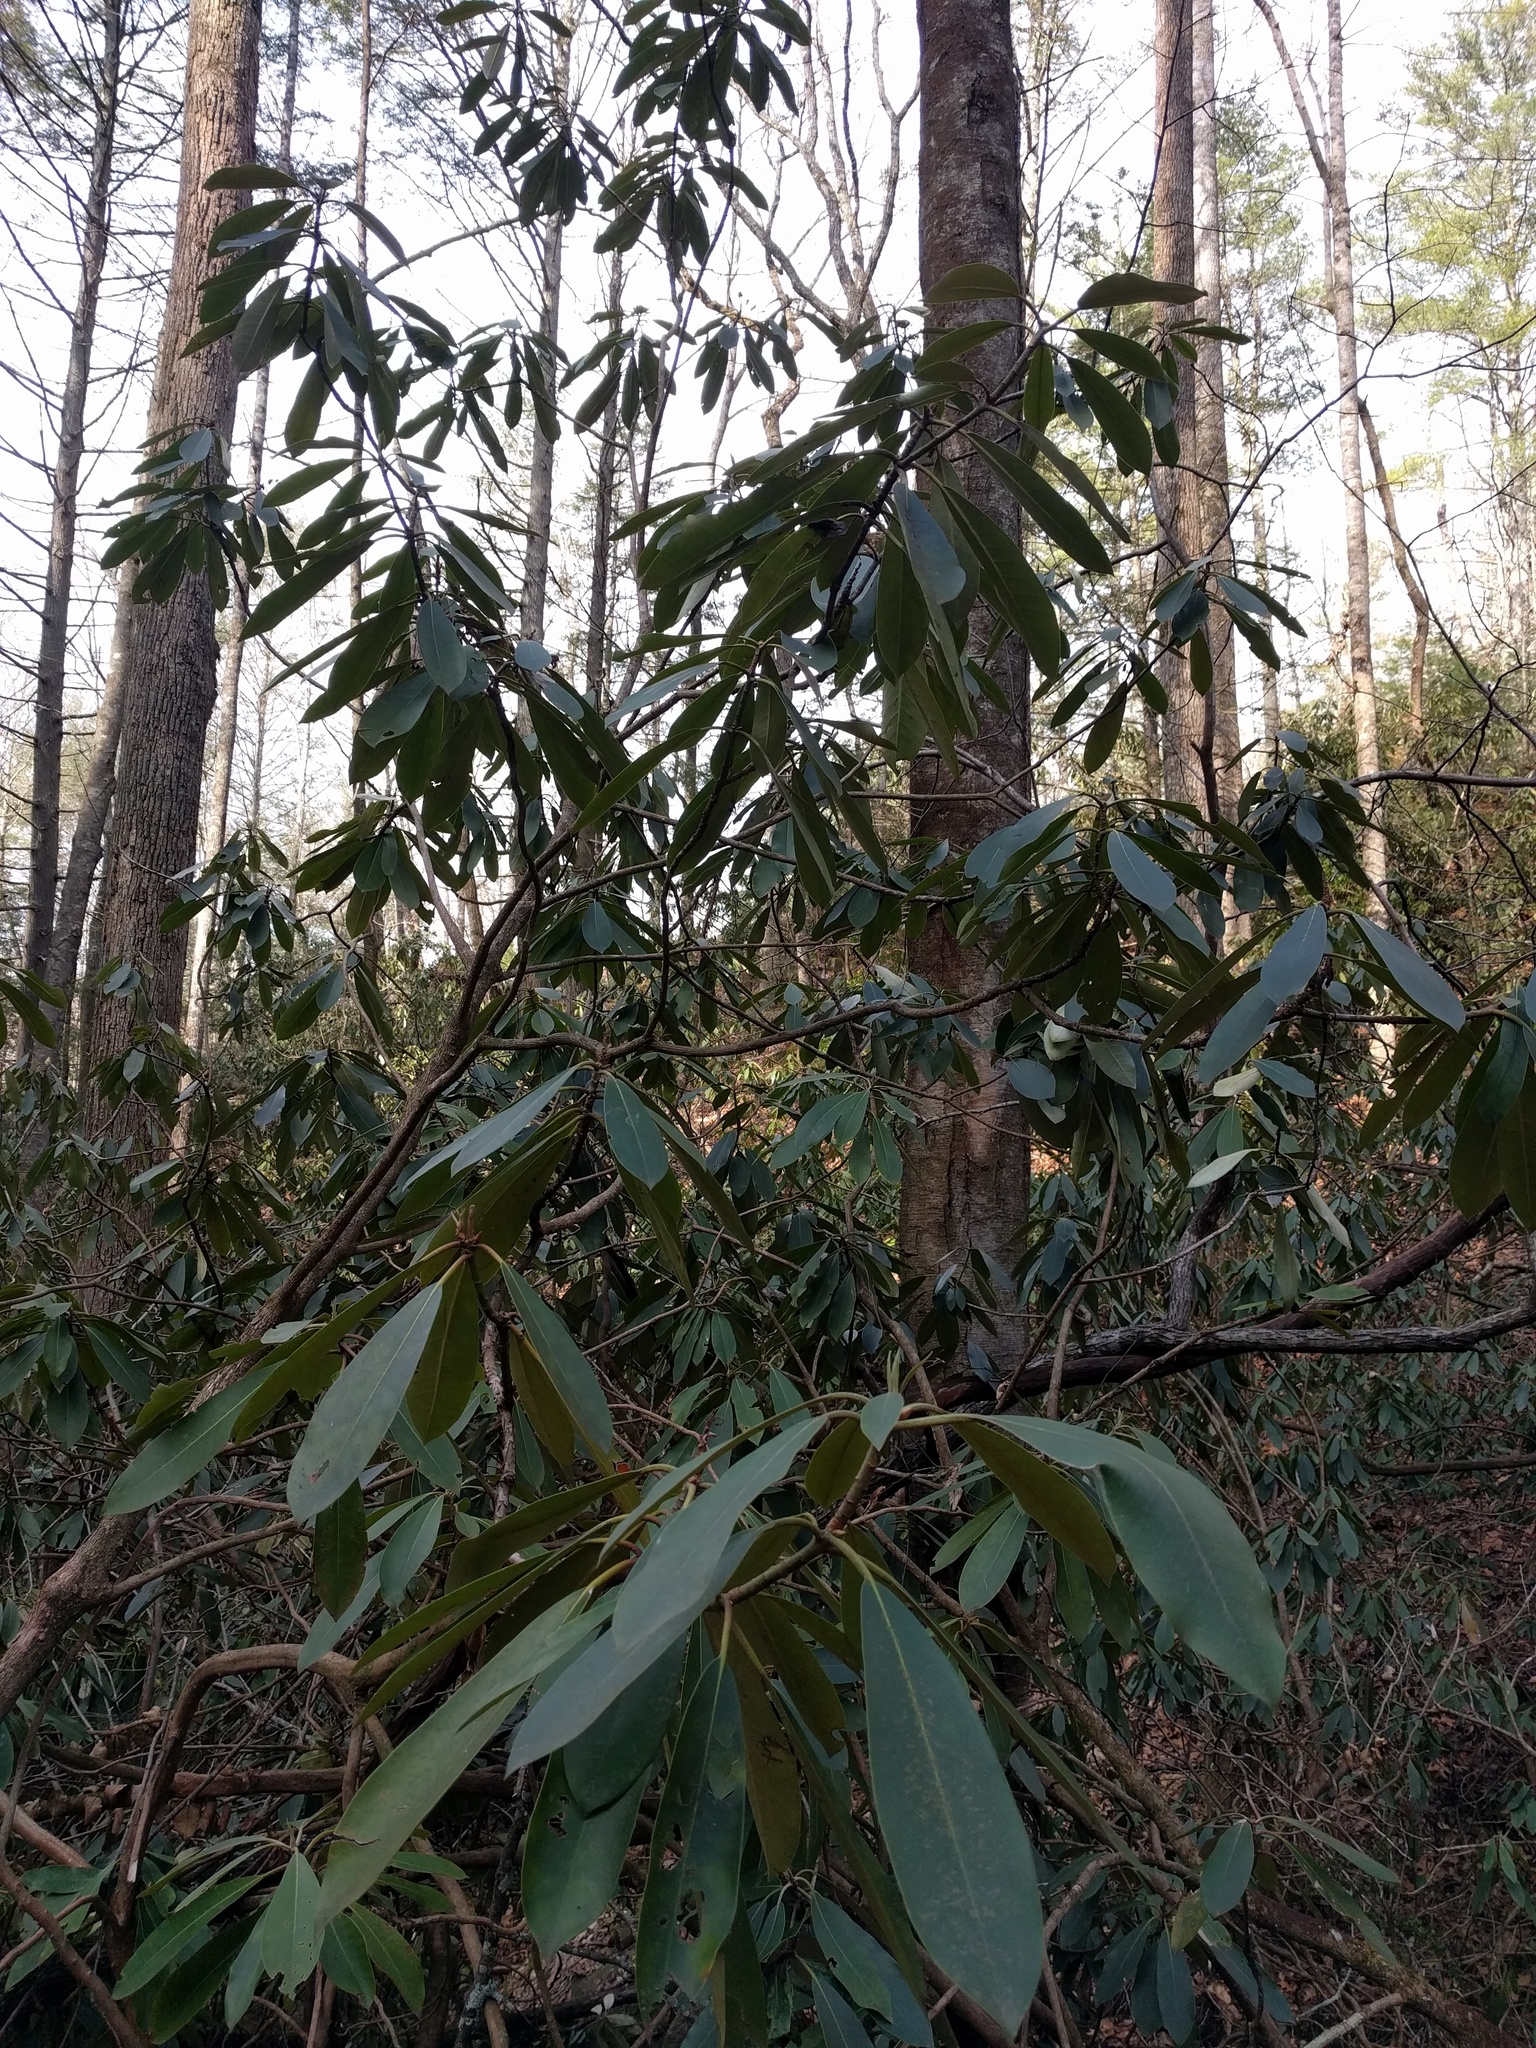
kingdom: Plantae
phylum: Tracheophyta
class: Magnoliopsida
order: Ericales
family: Ericaceae
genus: Rhododendron
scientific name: Rhododendron maximum
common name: Great rhododendron
